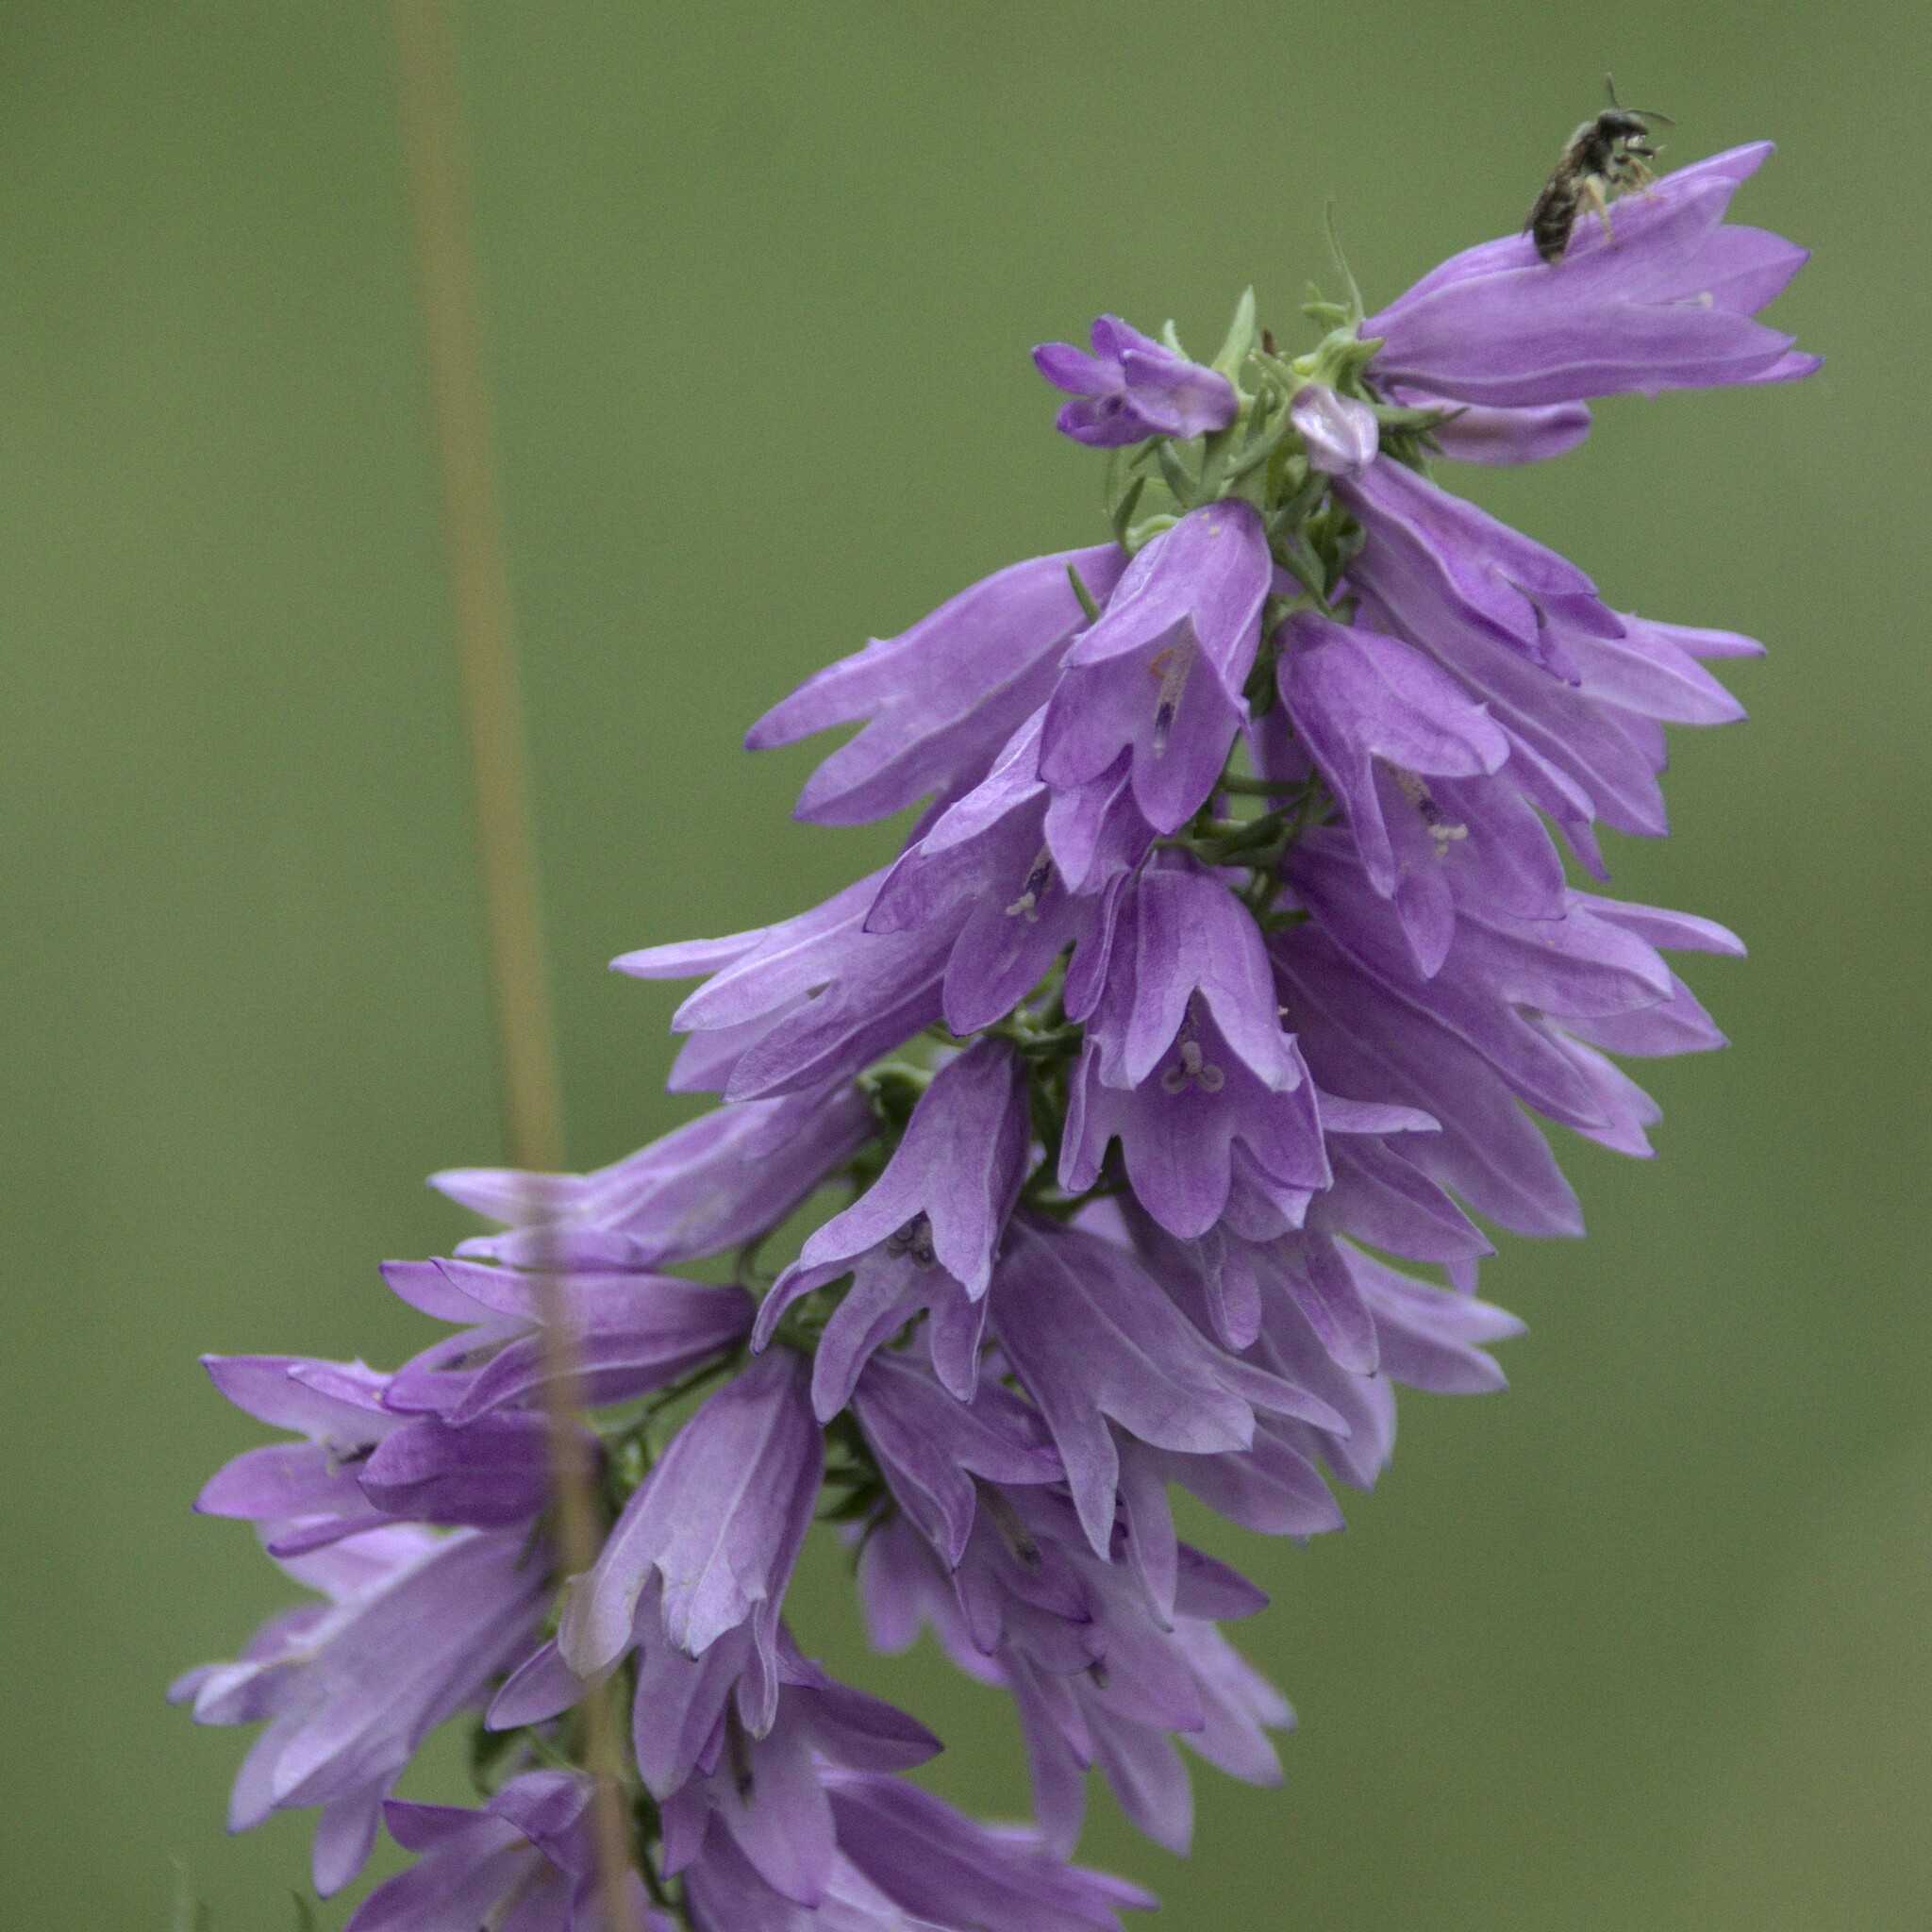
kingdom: Plantae
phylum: Tracheophyta
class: Magnoliopsida
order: Asterales
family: Campanulaceae
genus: Campanula
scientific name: Campanula bononiensis
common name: Pale bellflower
